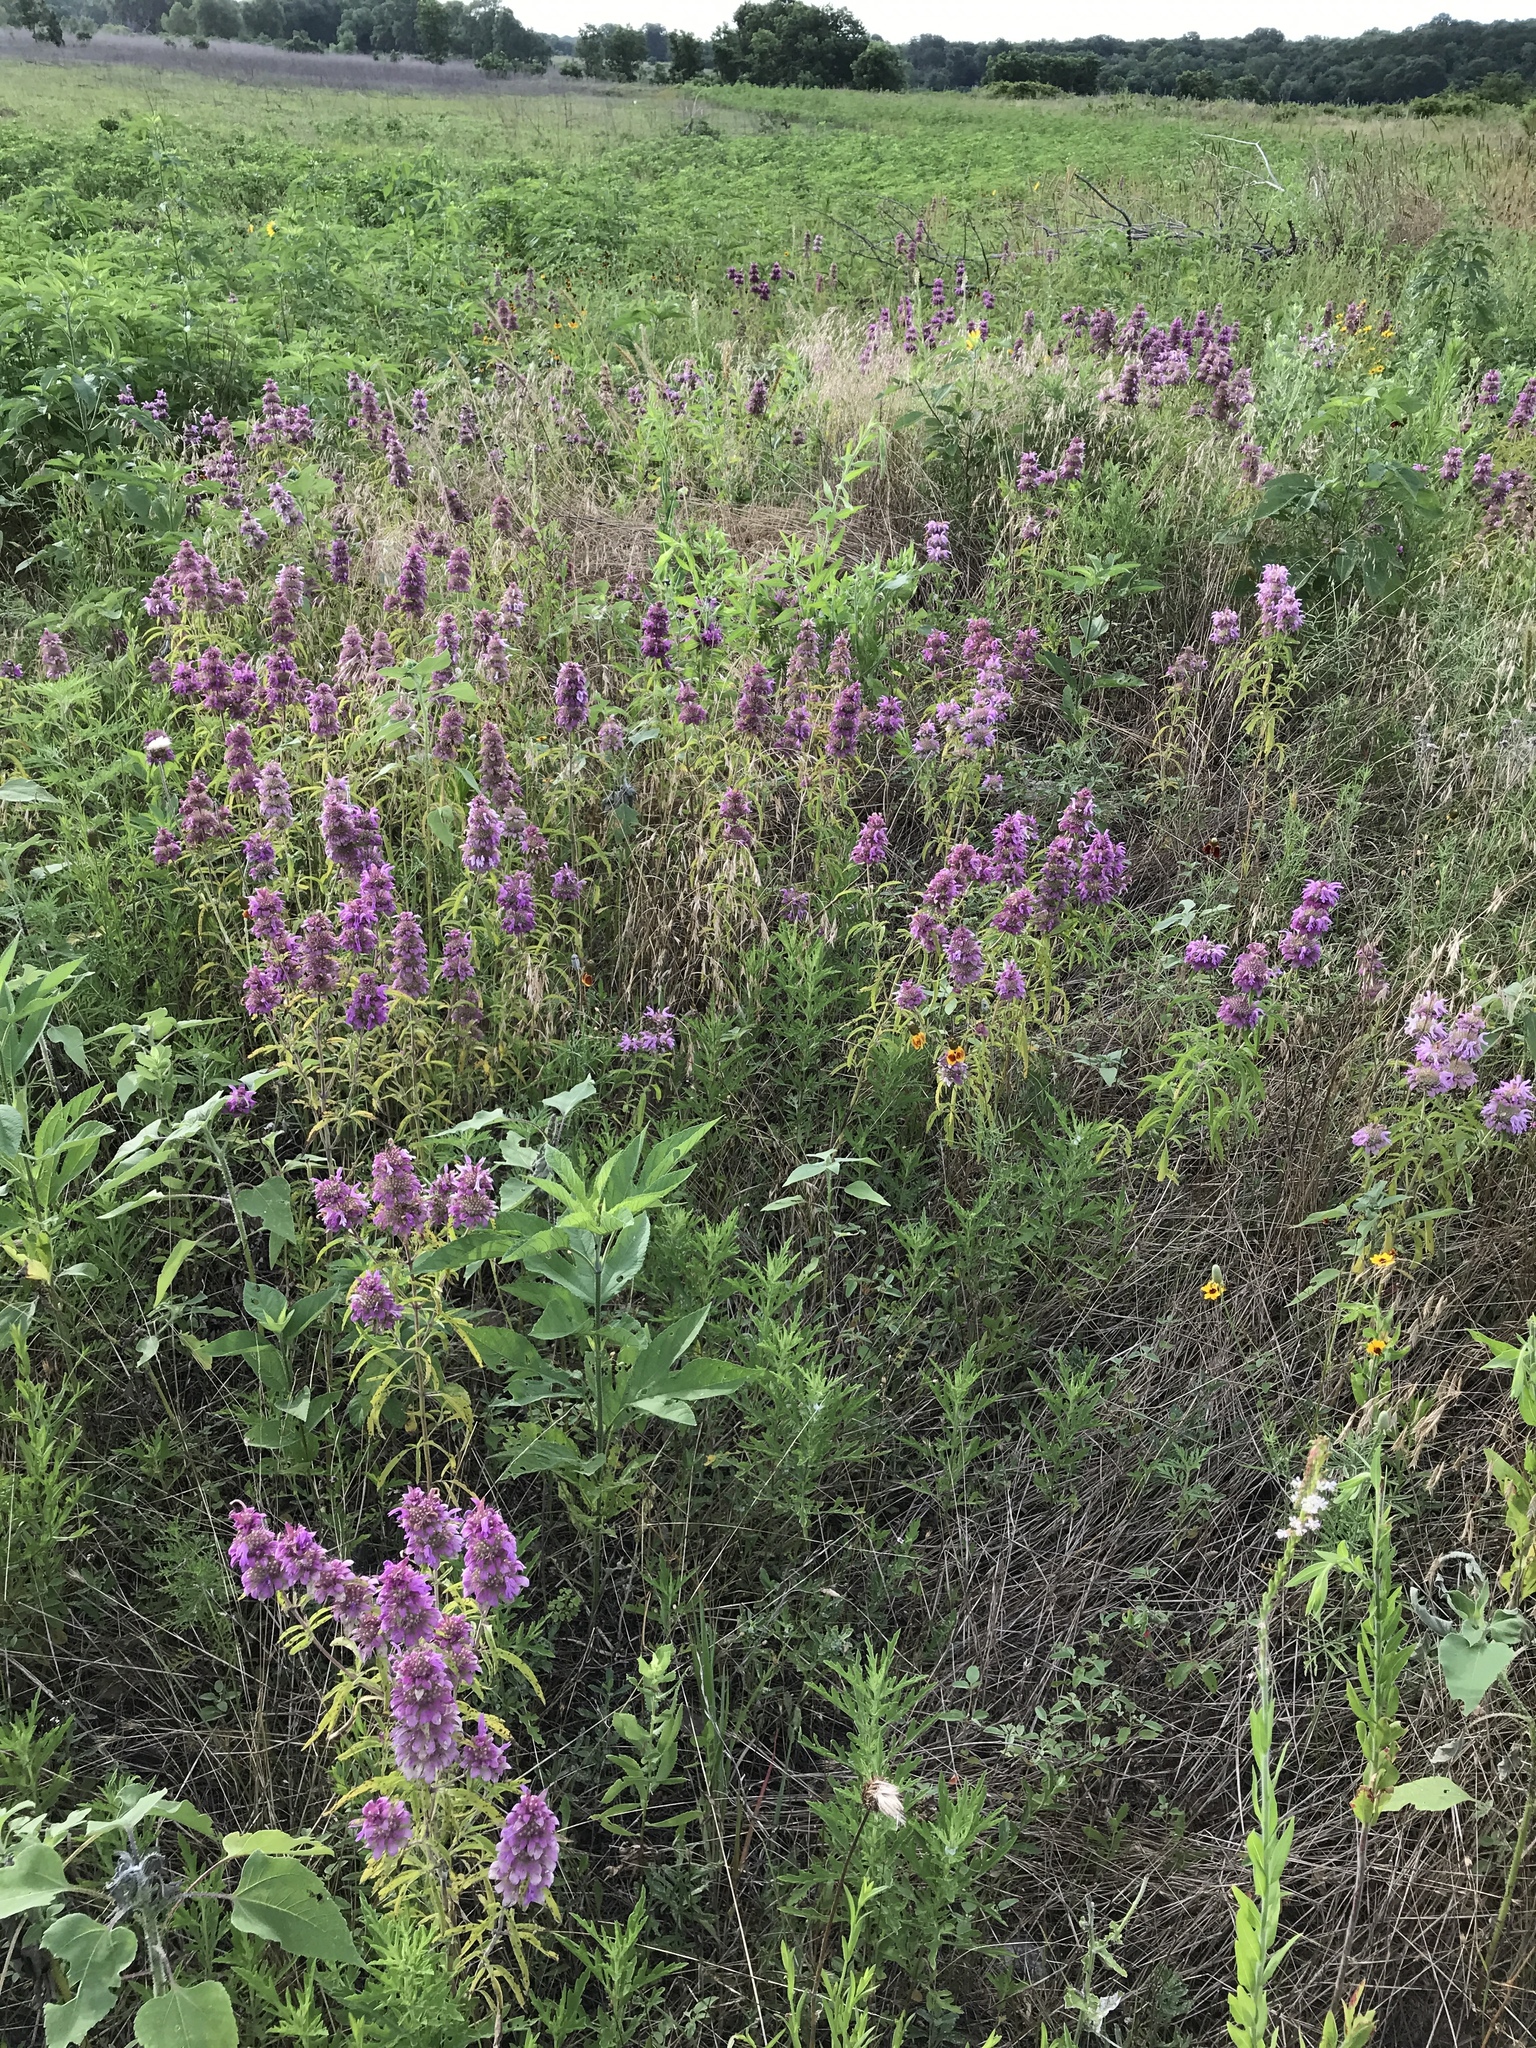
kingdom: Plantae
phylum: Tracheophyta
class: Magnoliopsida
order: Lamiales
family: Lamiaceae
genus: Monarda
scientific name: Monarda citriodora
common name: Lemon beebalm
